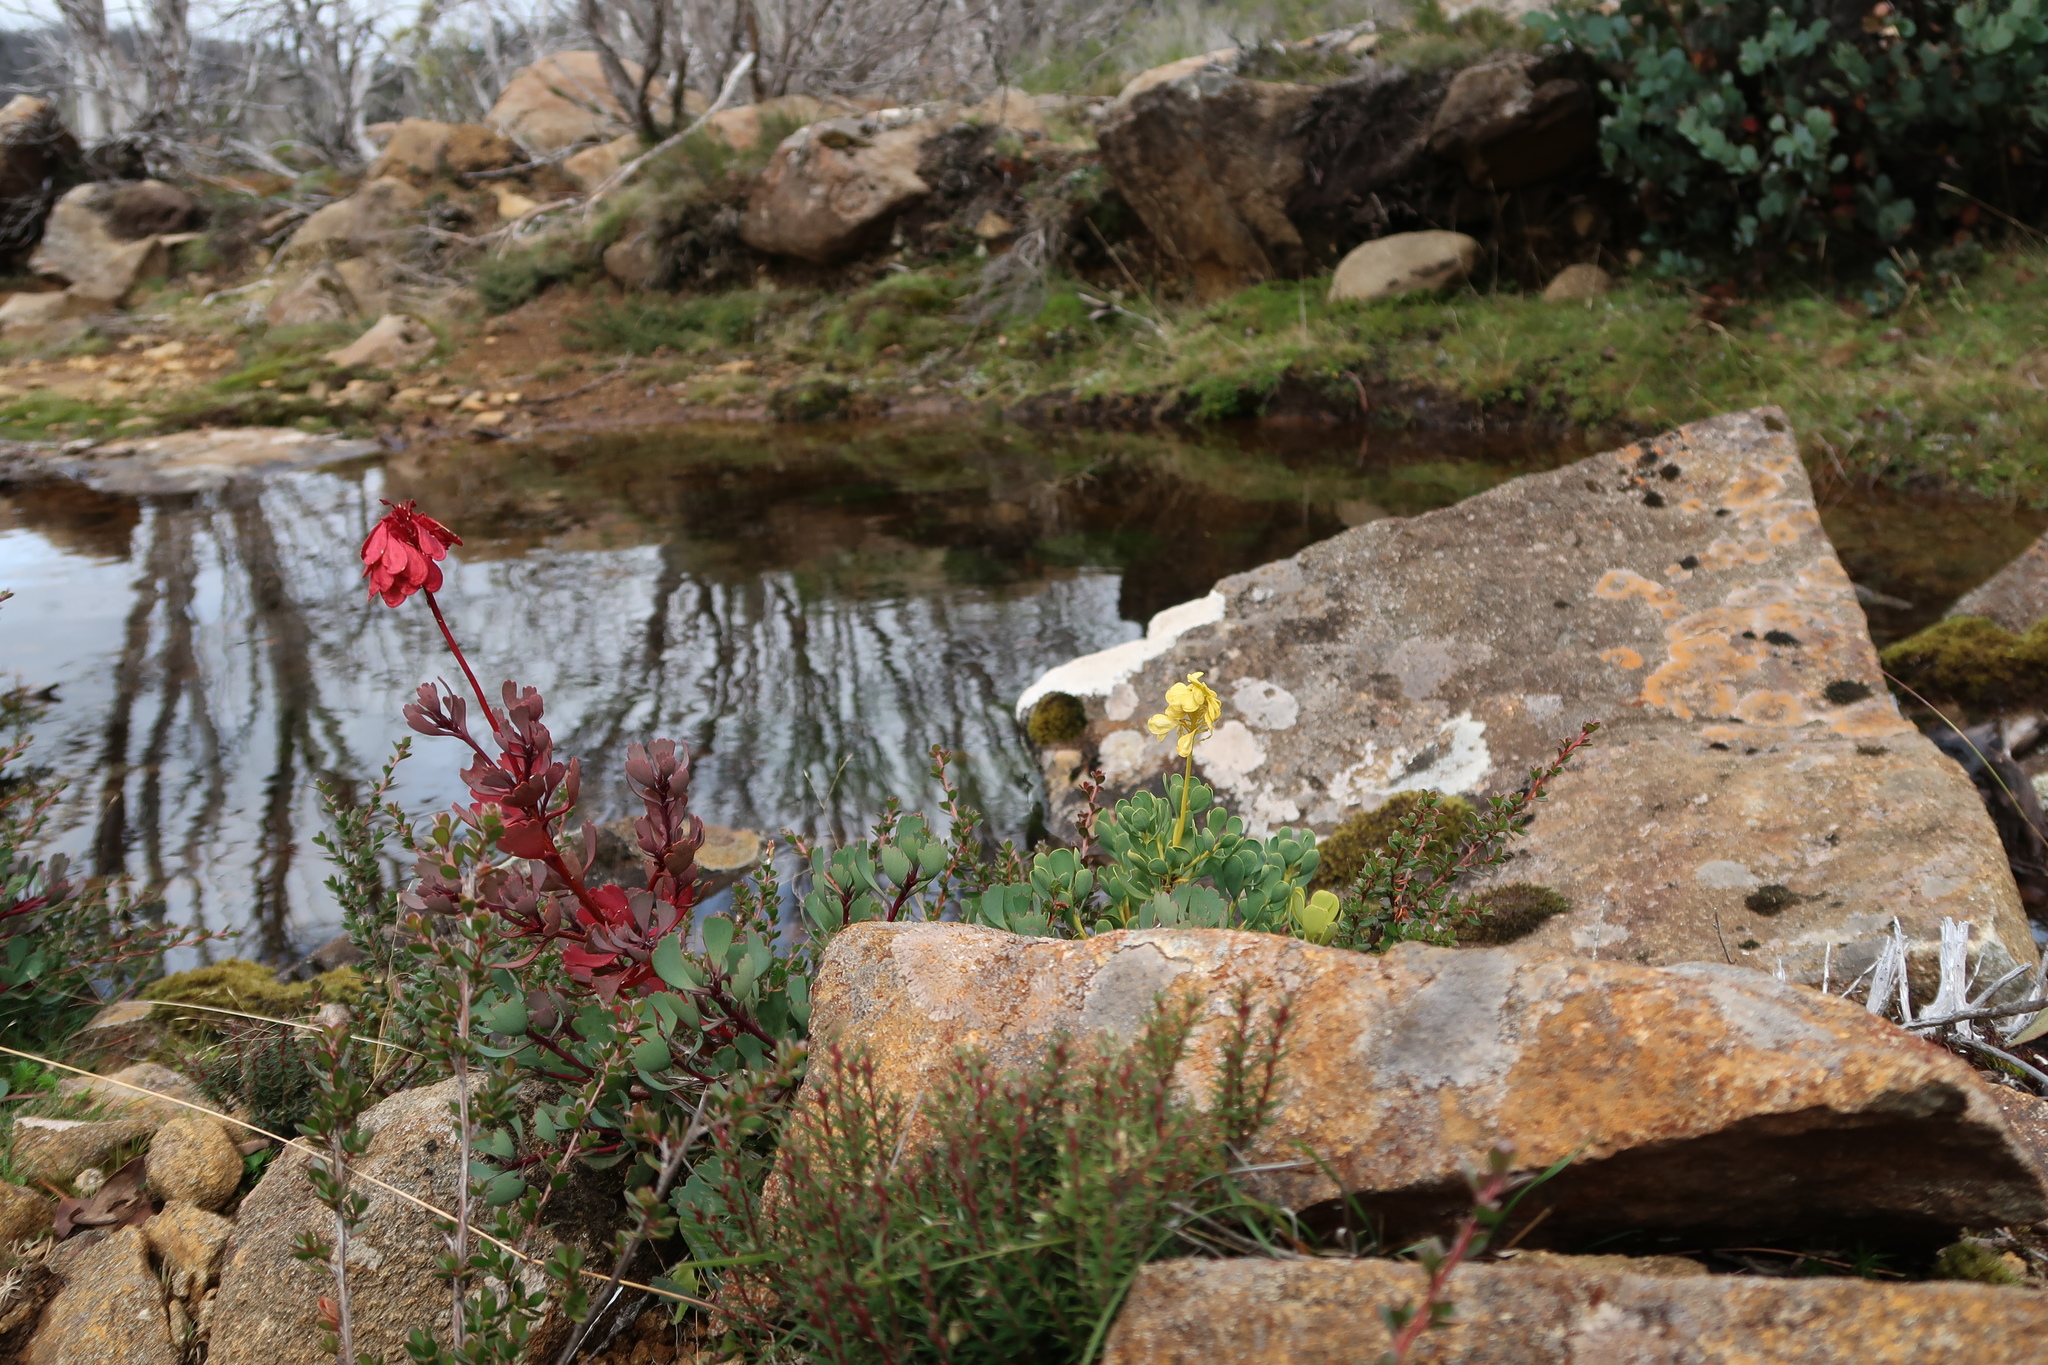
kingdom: Plantae
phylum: Tracheophyta
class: Magnoliopsida
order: Proteales
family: Proteaceae
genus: Bellendena
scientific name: Bellendena montana
